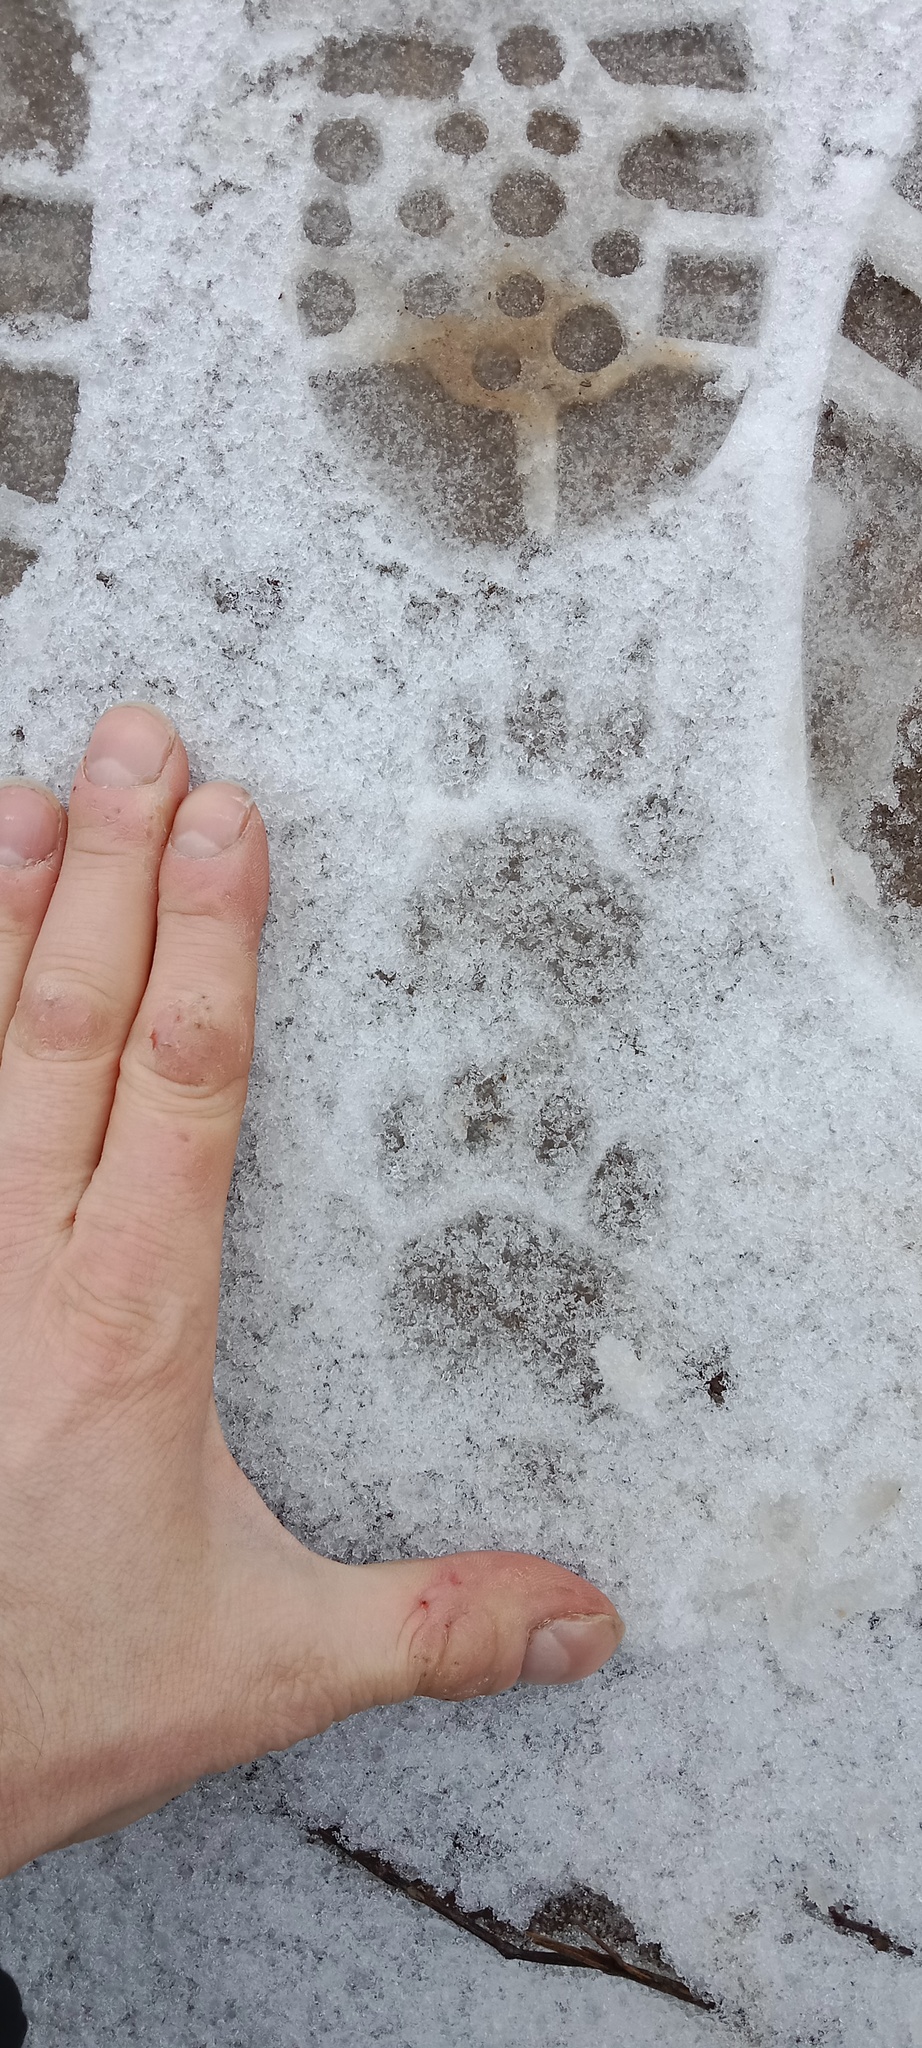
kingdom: Animalia
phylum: Chordata
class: Mammalia
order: Carnivora
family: Mustelidae
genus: Meles
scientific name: Meles meles
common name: Eurasian badger
